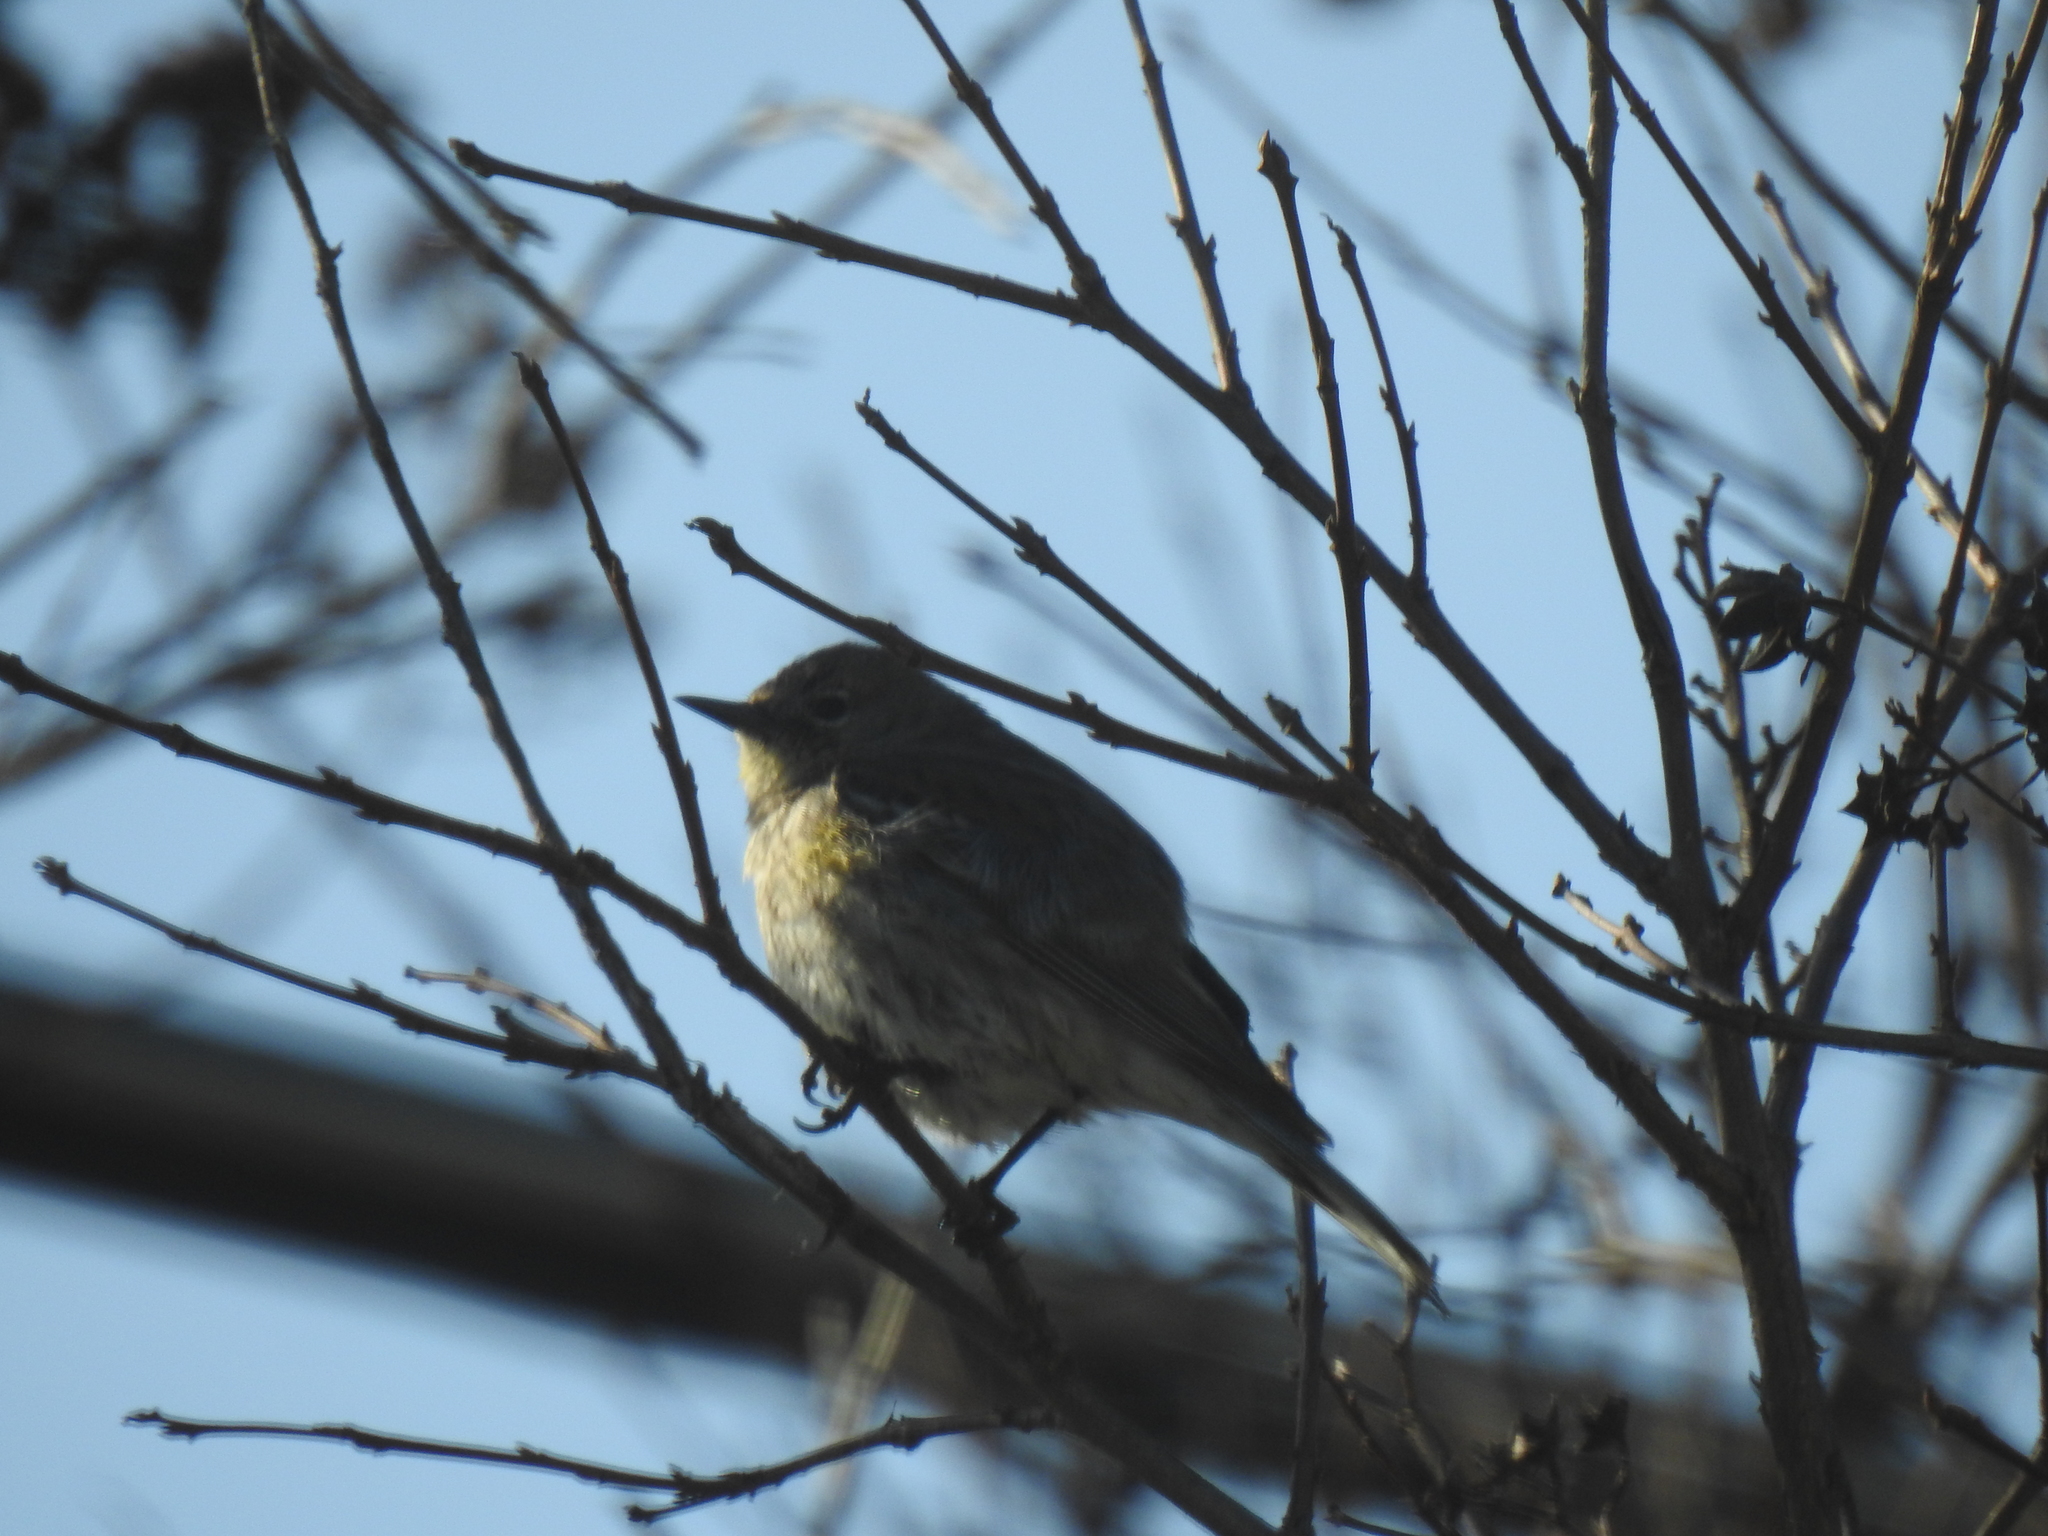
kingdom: Animalia
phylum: Chordata
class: Aves
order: Passeriformes
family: Parulidae
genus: Setophaga
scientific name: Setophaga coronata
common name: Myrtle warbler
